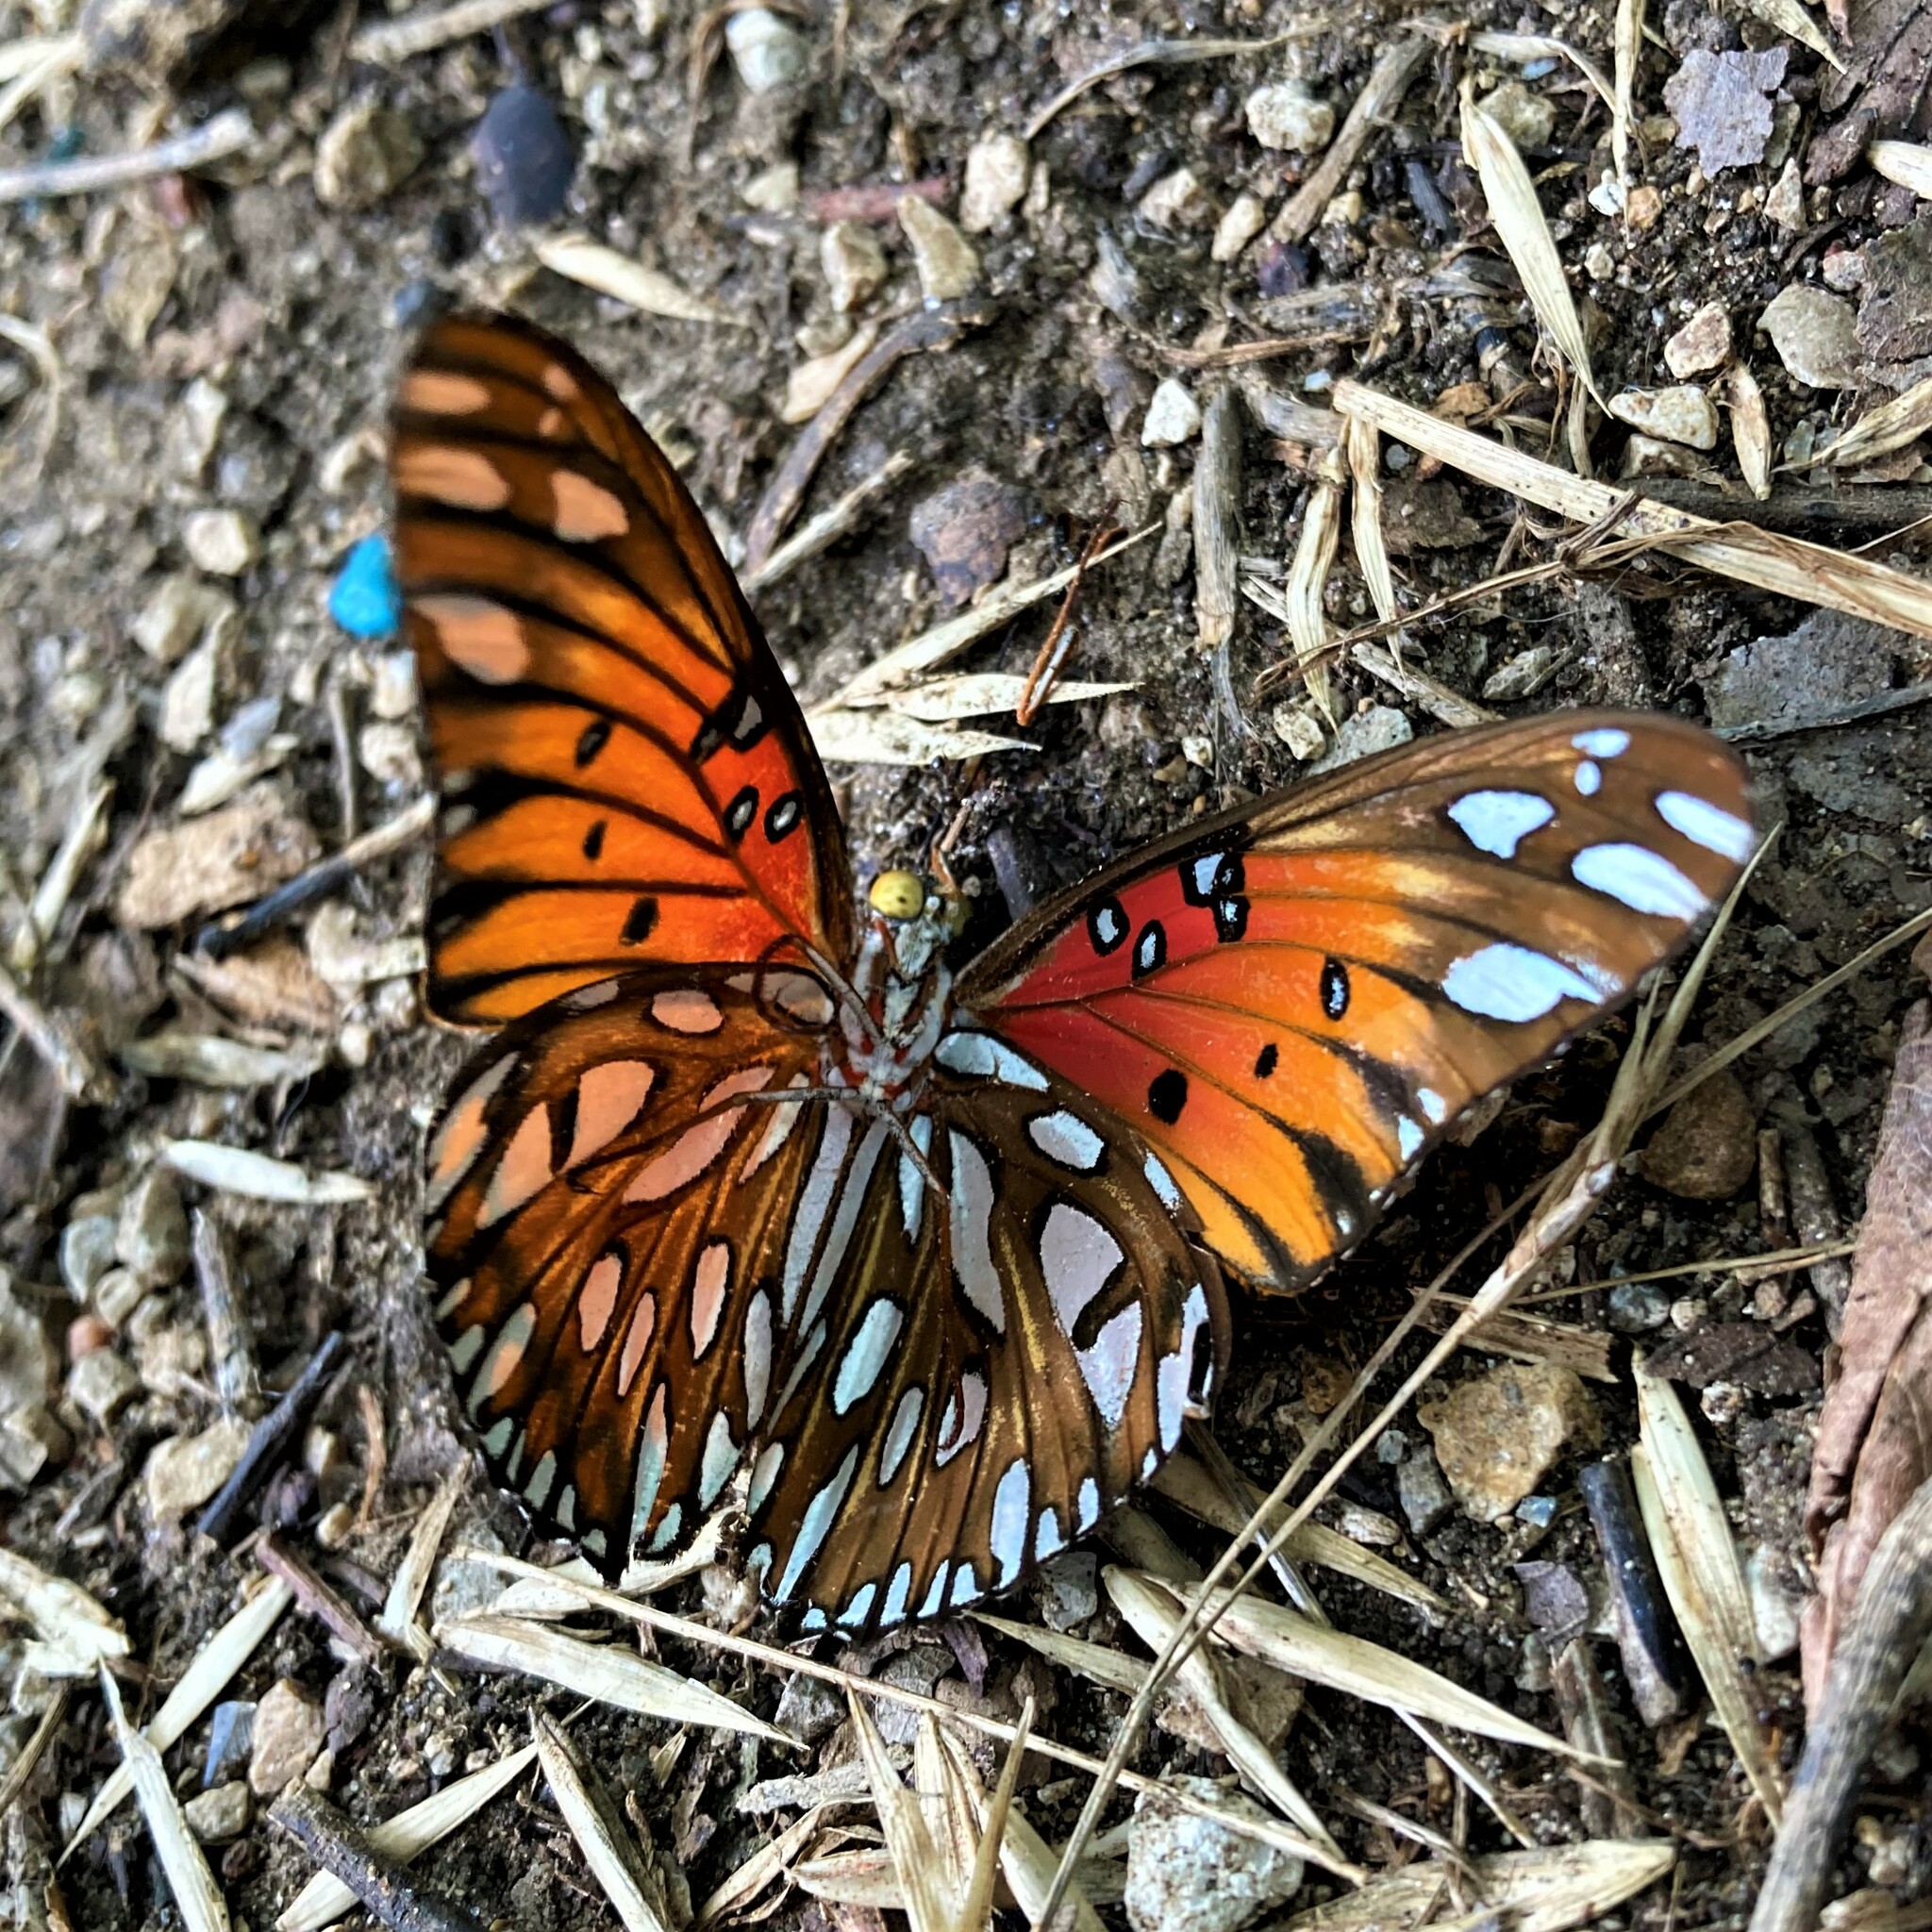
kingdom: Animalia
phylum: Arthropoda
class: Insecta
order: Lepidoptera
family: Nymphalidae
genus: Dione
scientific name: Dione vanillae
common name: Gulf fritillary
